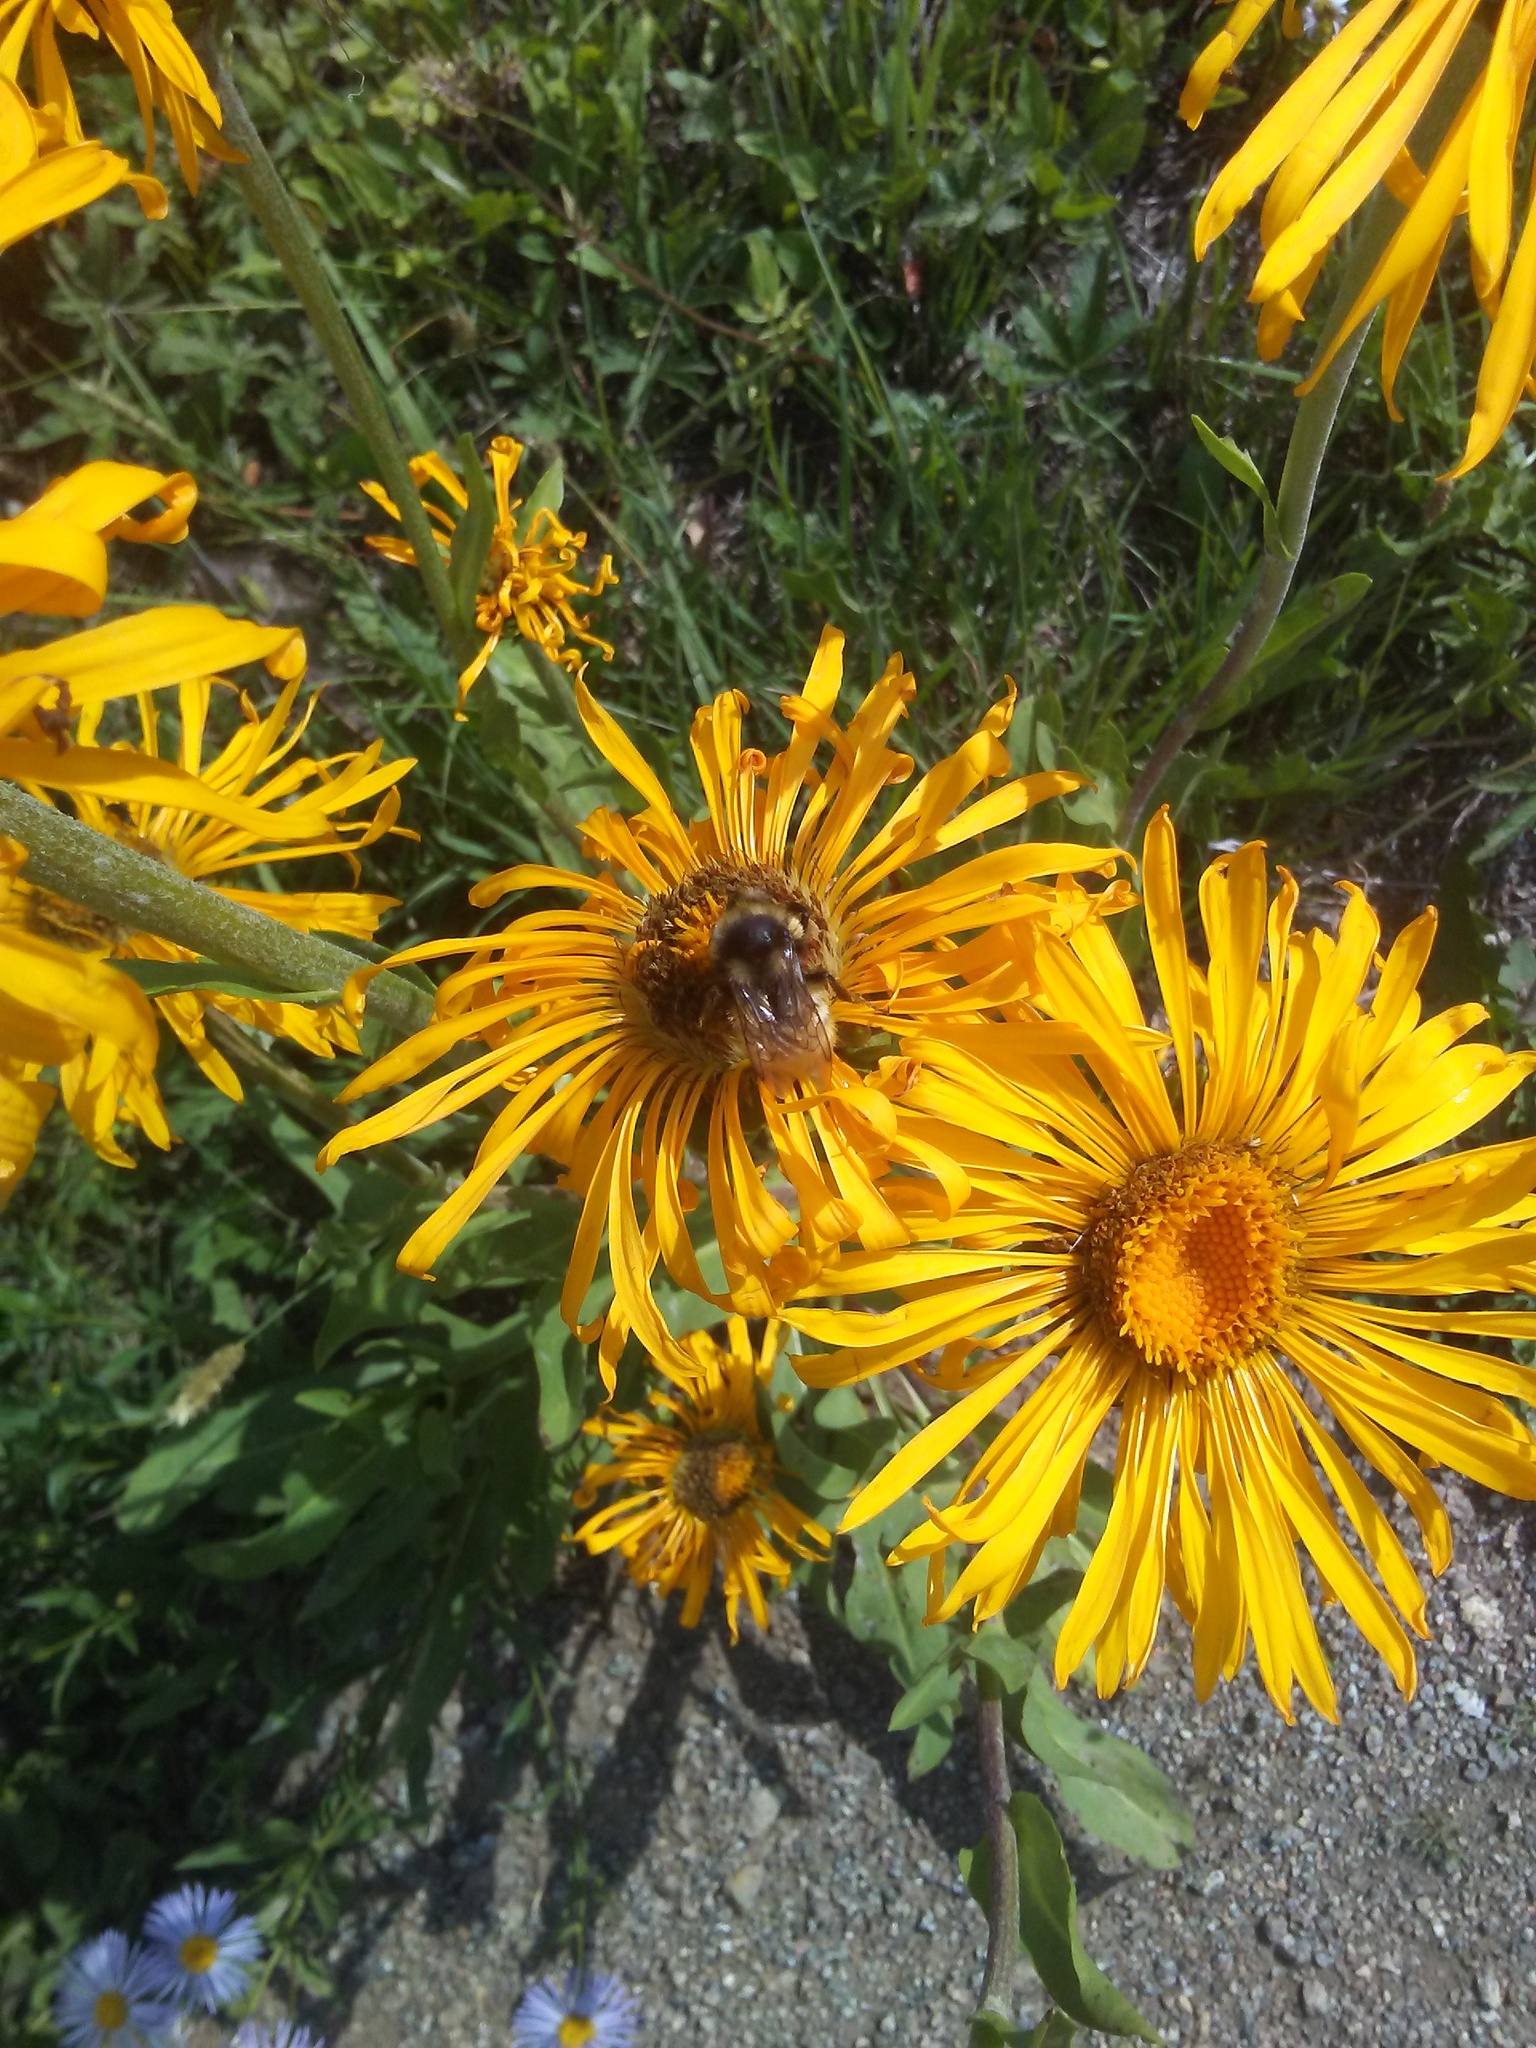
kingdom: Plantae
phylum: Tracheophyta
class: Magnoliopsida
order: Asterales
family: Asteraceae
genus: Pyrrocoma
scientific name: Pyrrocoma crocea
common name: Curly-head goldenweed
